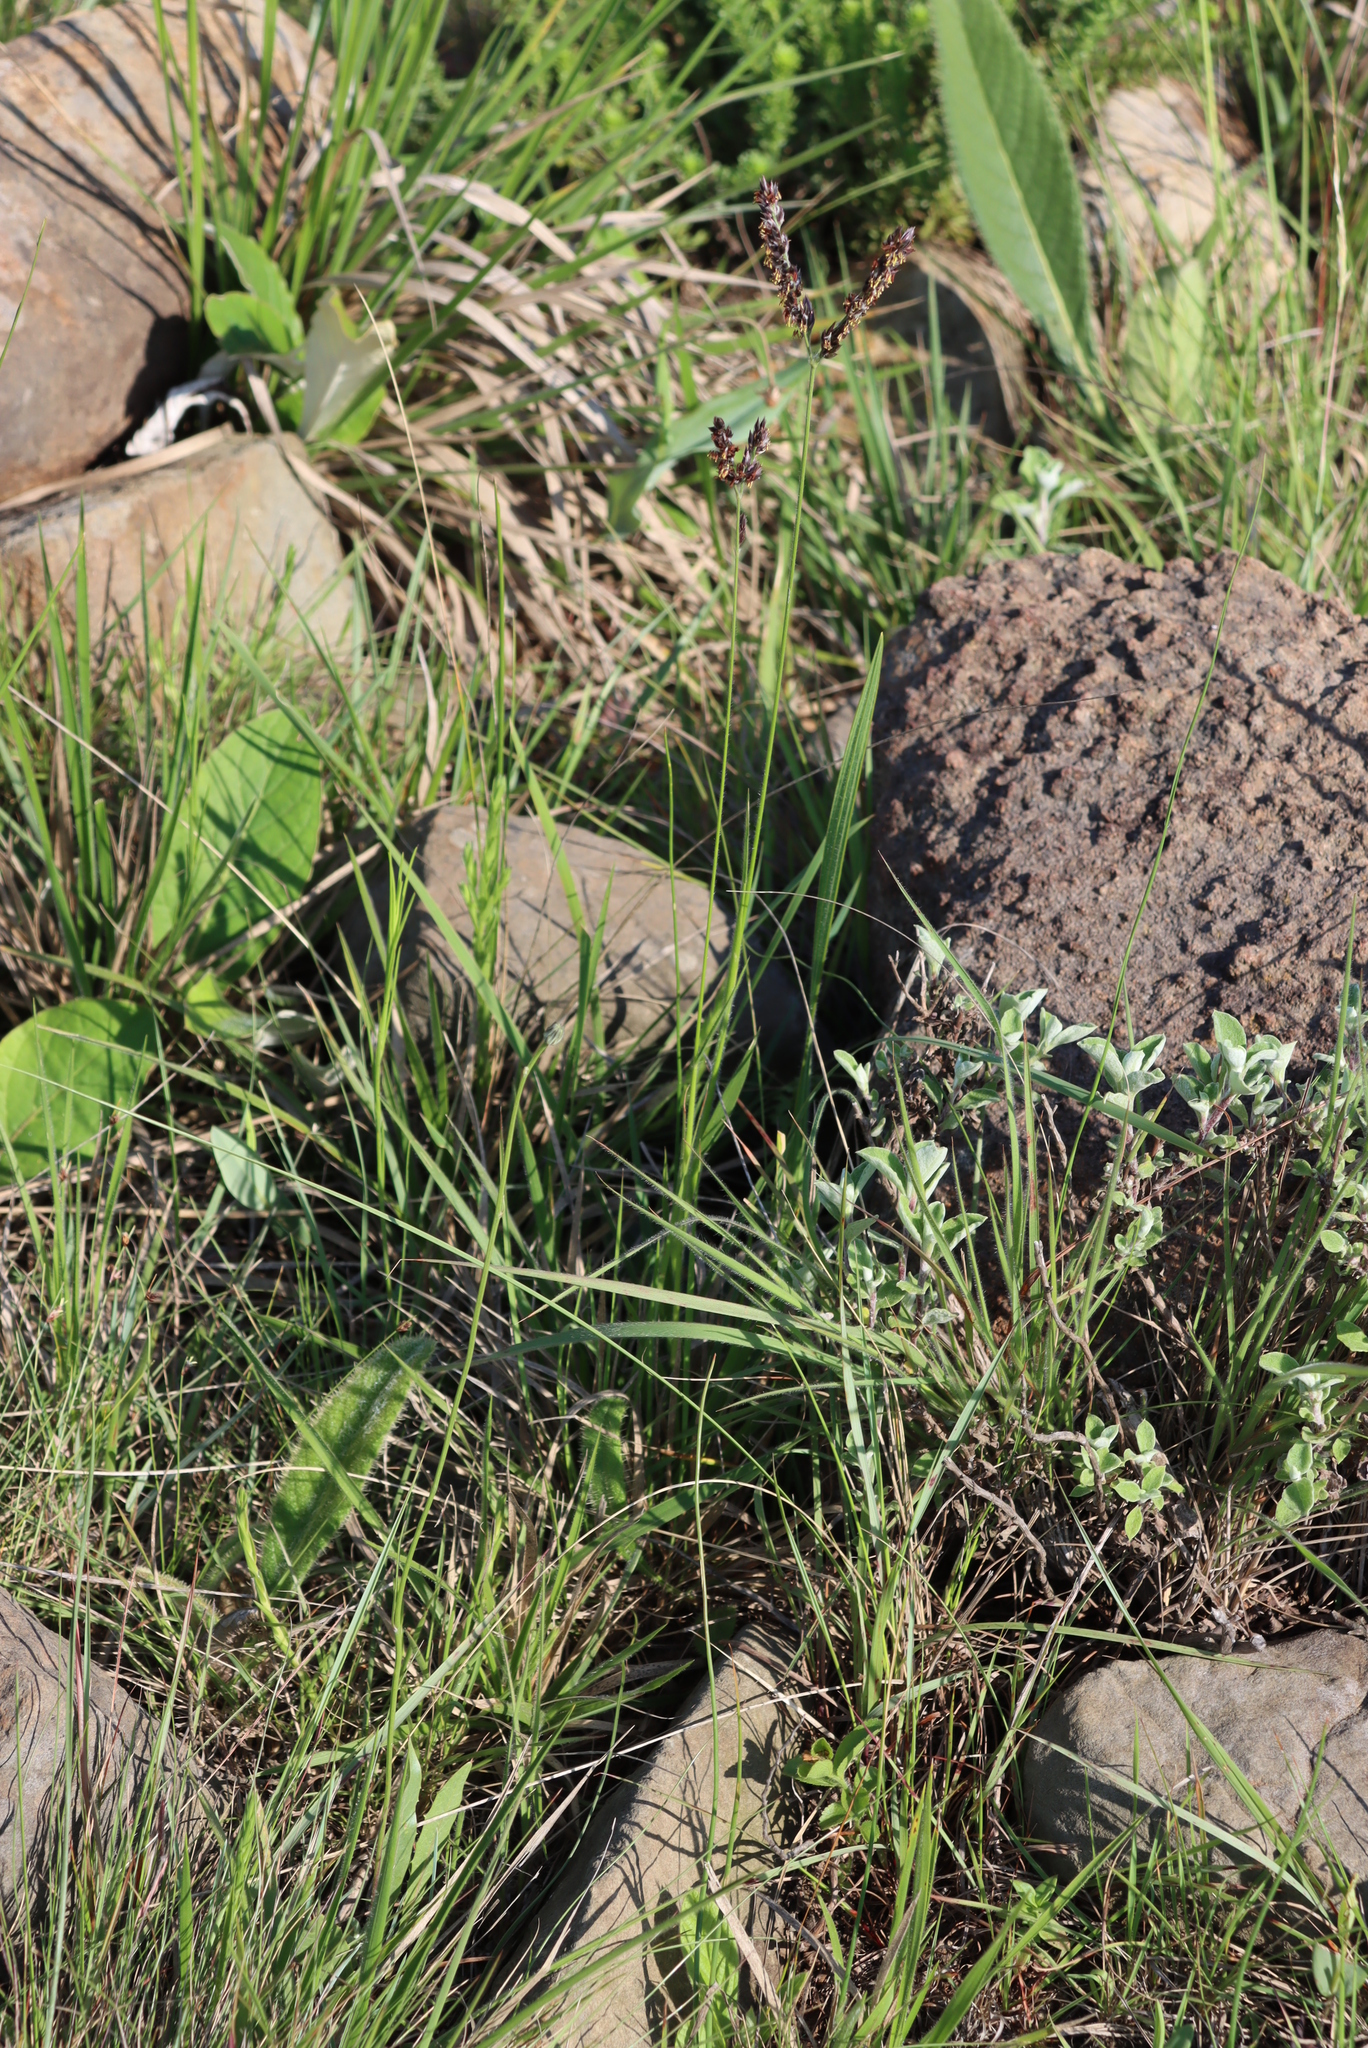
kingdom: Plantae
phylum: Tracheophyta
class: Liliopsida
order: Poales
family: Poaceae
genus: Alloteropsis
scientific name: Alloteropsis semialata
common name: Cockatoo grass
